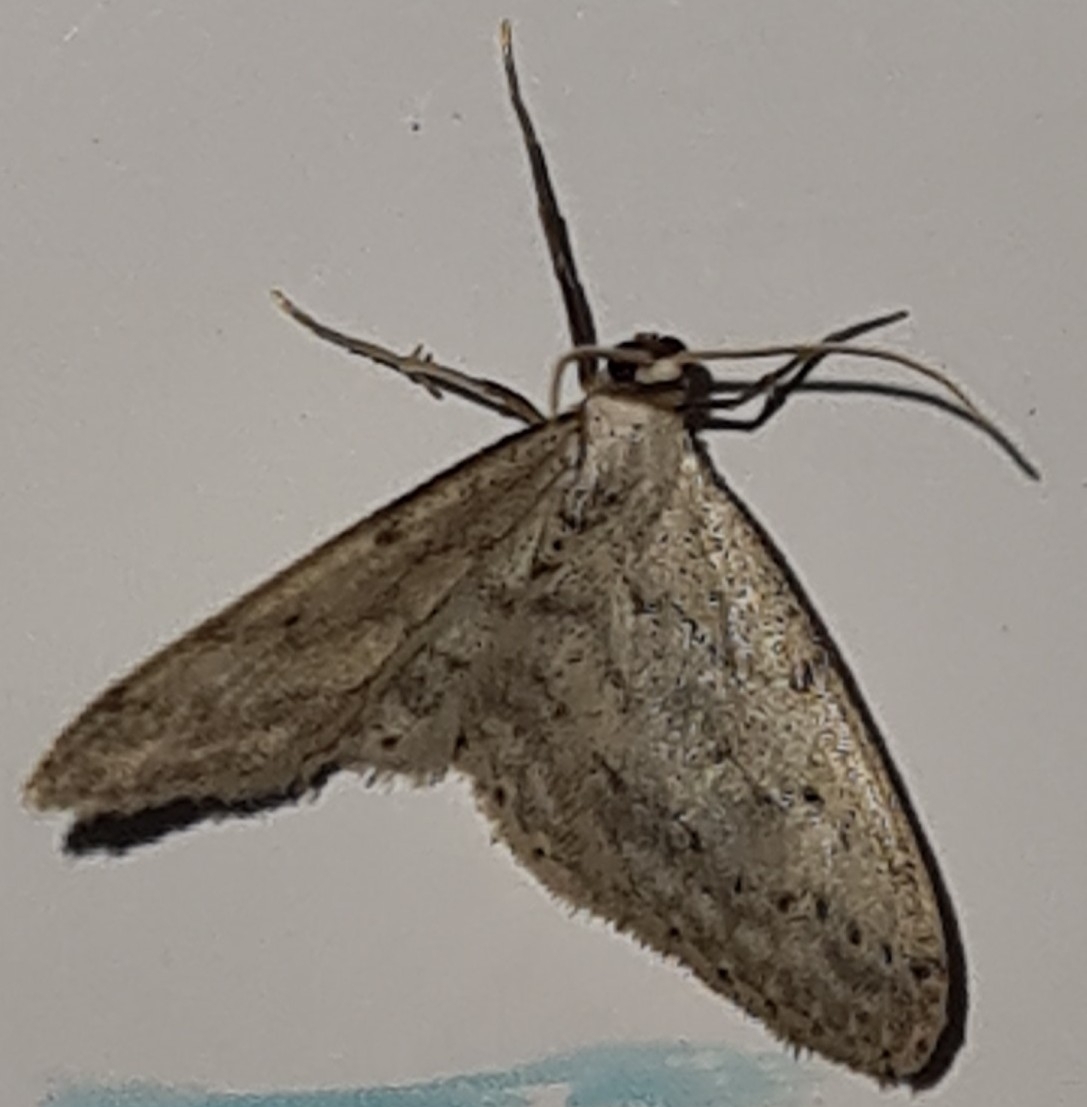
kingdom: Animalia
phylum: Arthropoda
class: Insecta
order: Lepidoptera
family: Geometridae
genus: Idaea
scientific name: Idaea seriata
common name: Small dusty wave
